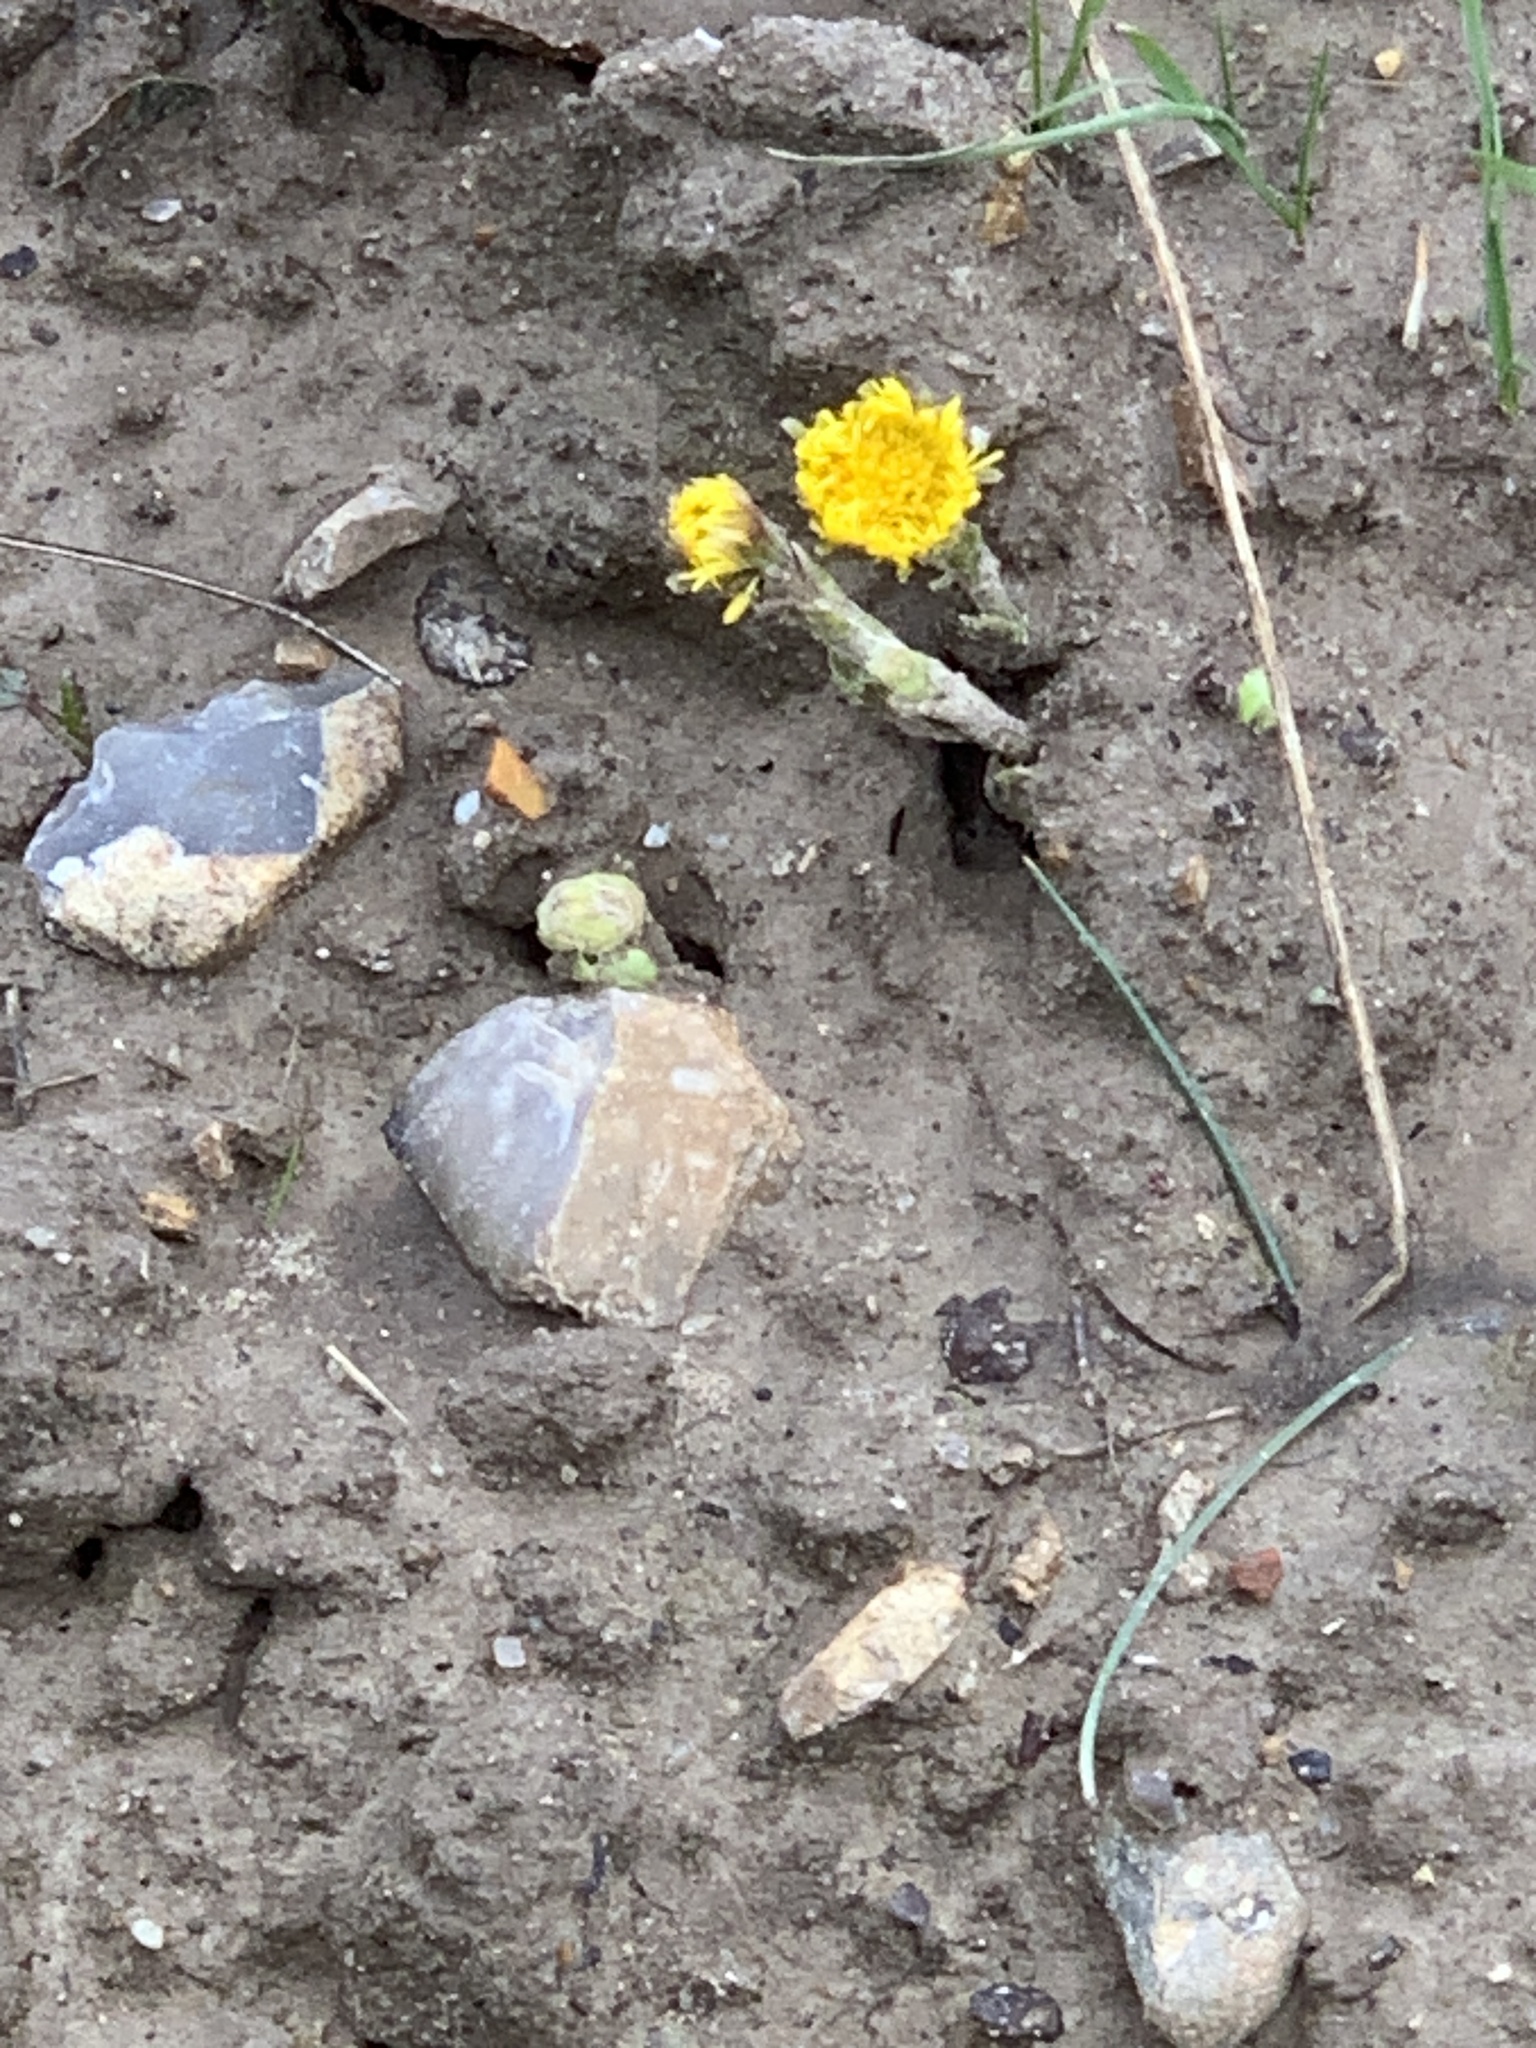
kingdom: Plantae
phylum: Tracheophyta
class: Magnoliopsida
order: Asterales
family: Asteraceae
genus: Tussilago
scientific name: Tussilago farfara
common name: Coltsfoot
